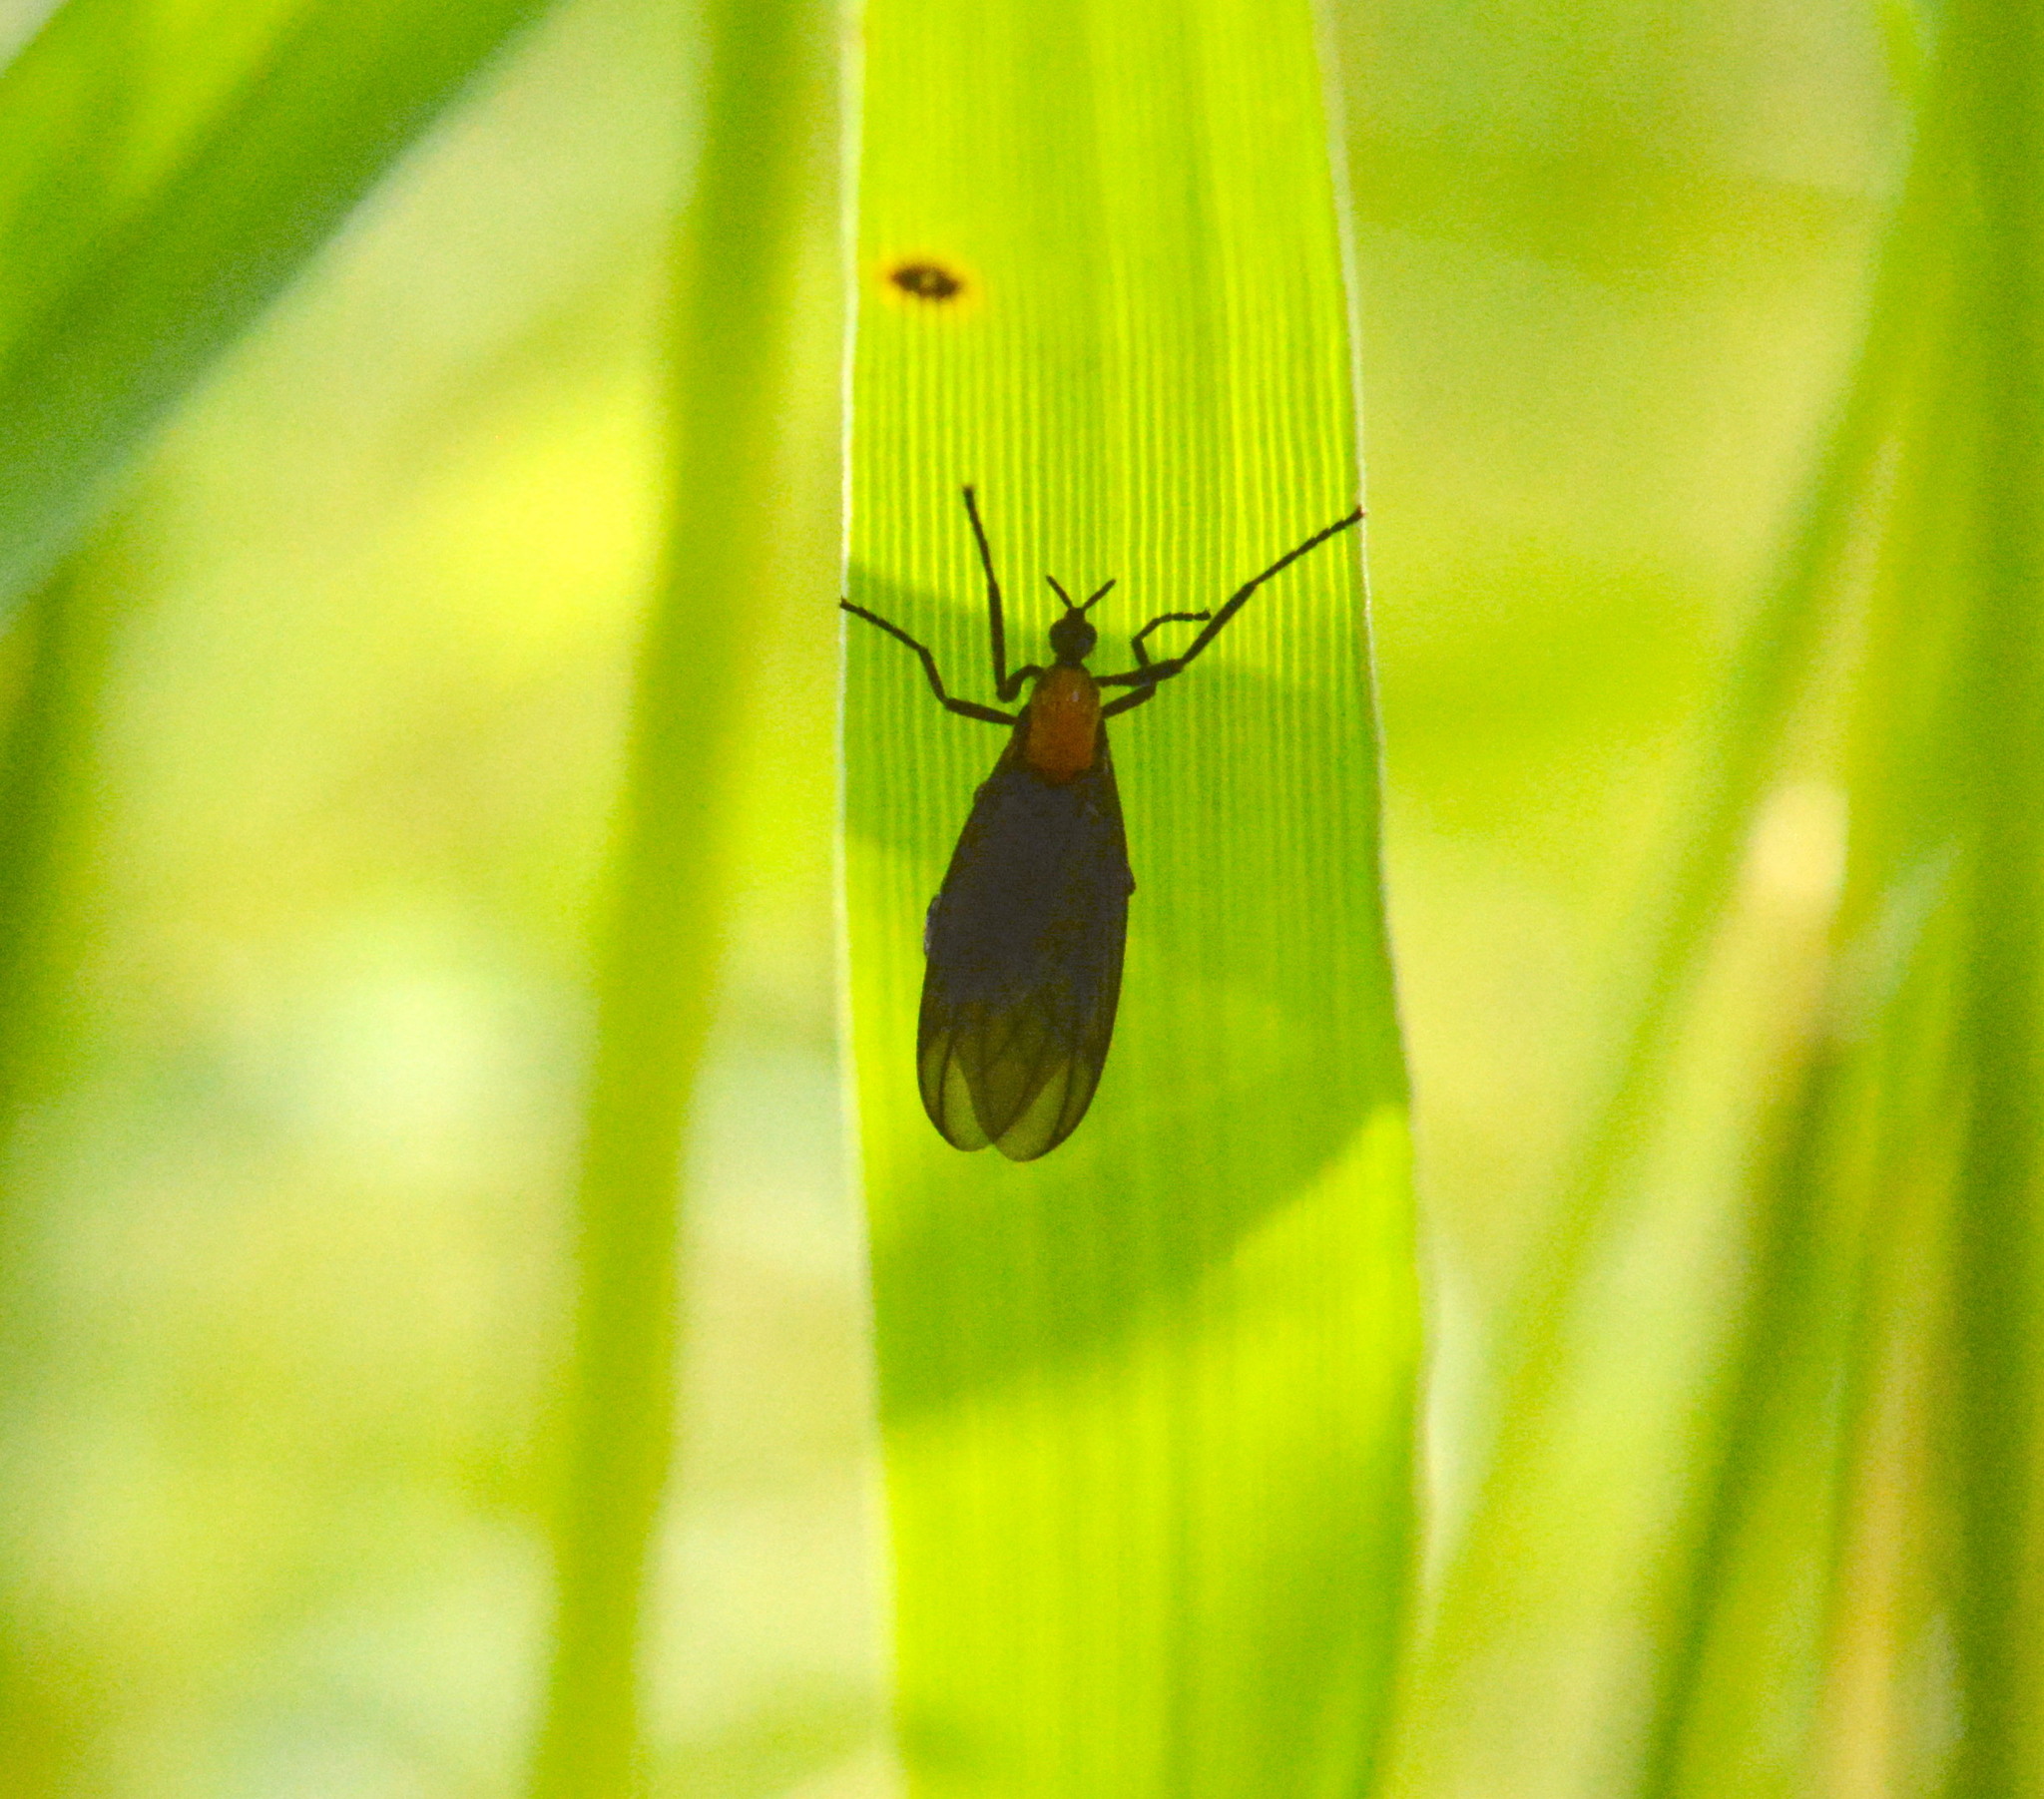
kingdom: Animalia
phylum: Arthropoda
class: Insecta
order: Diptera
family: Bibionidae
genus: Plecia
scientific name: Plecia nearctica
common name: March fly
